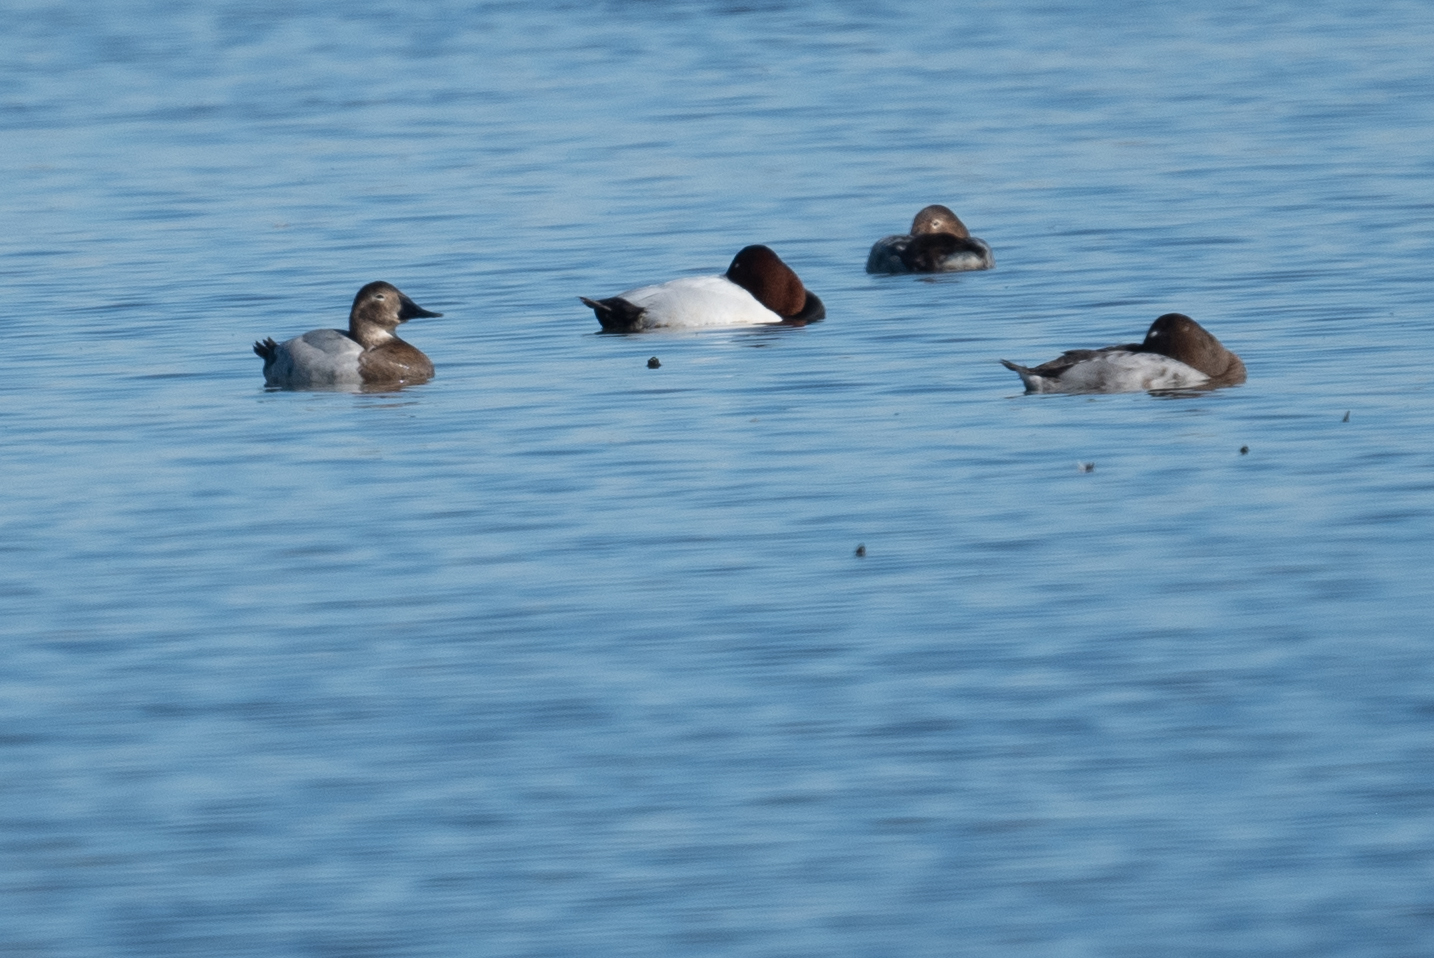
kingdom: Animalia
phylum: Chordata
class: Aves
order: Anseriformes
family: Anatidae
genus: Aythya
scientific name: Aythya valisineria
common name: Canvasback
